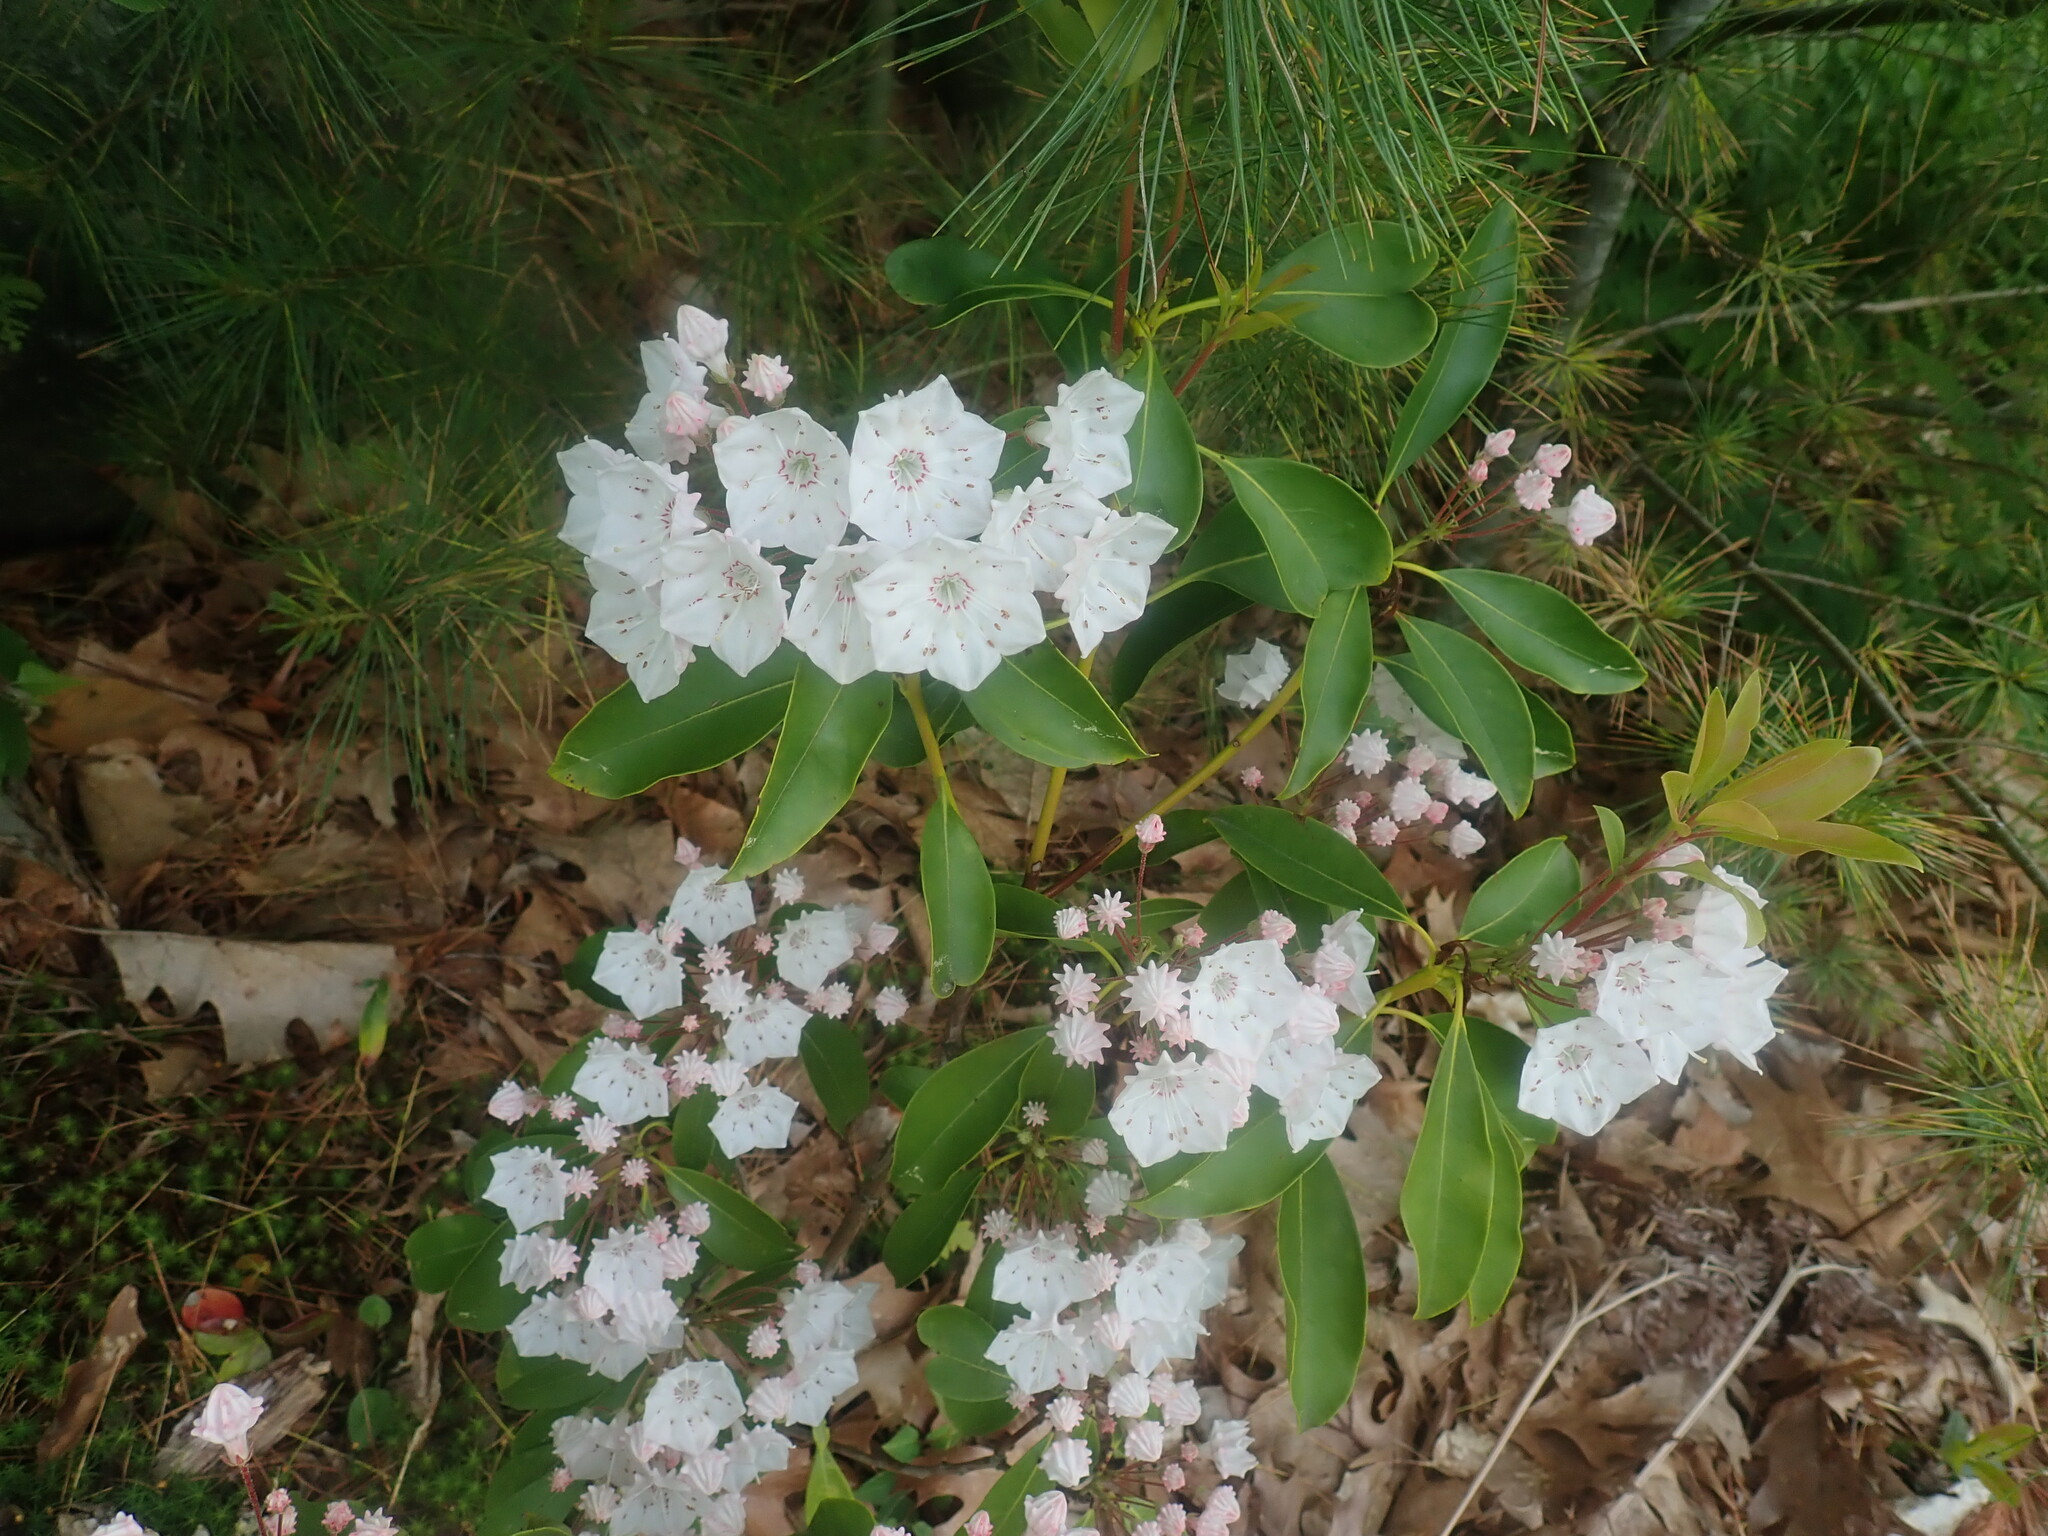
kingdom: Plantae
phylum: Tracheophyta
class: Magnoliopsida
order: Ericales
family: Ericaceae
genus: Kalmia
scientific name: Kalmia latifolia
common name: Mountain-laurel
